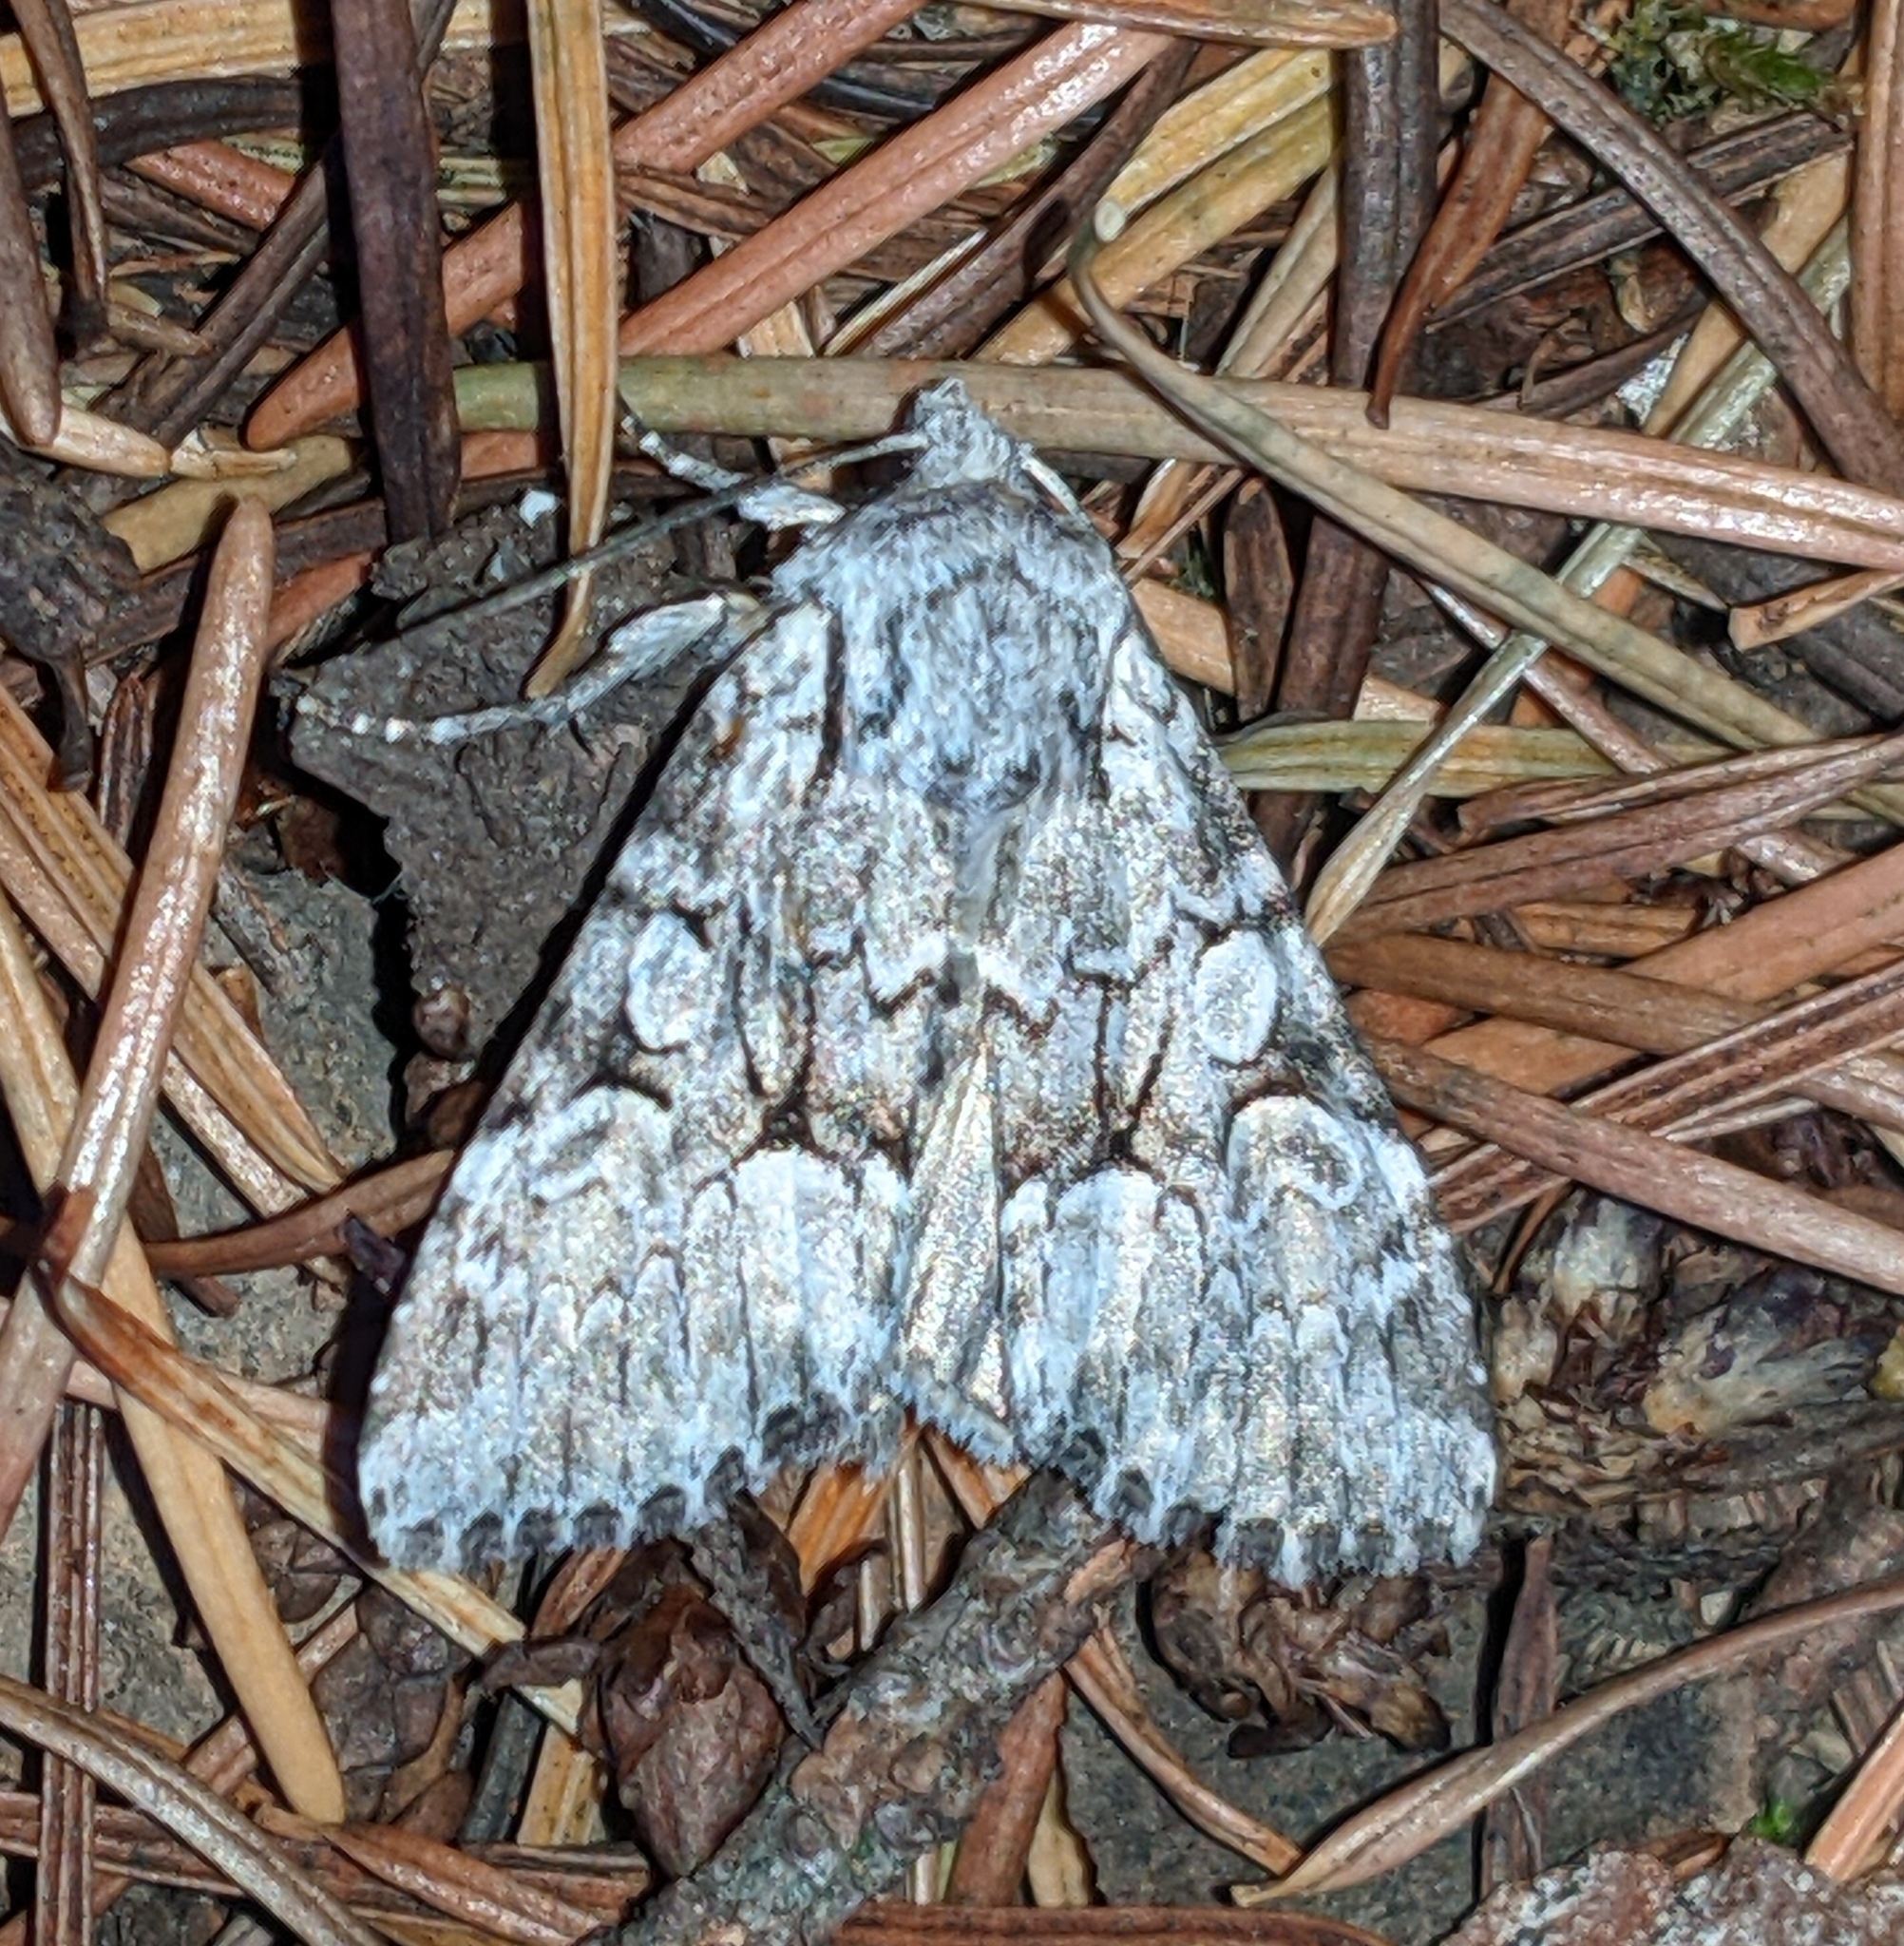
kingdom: Animalia
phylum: Arthropoda
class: Insecta
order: Lepidoptera
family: Noctuidae
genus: Eremobina
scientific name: Eremobina claudens
